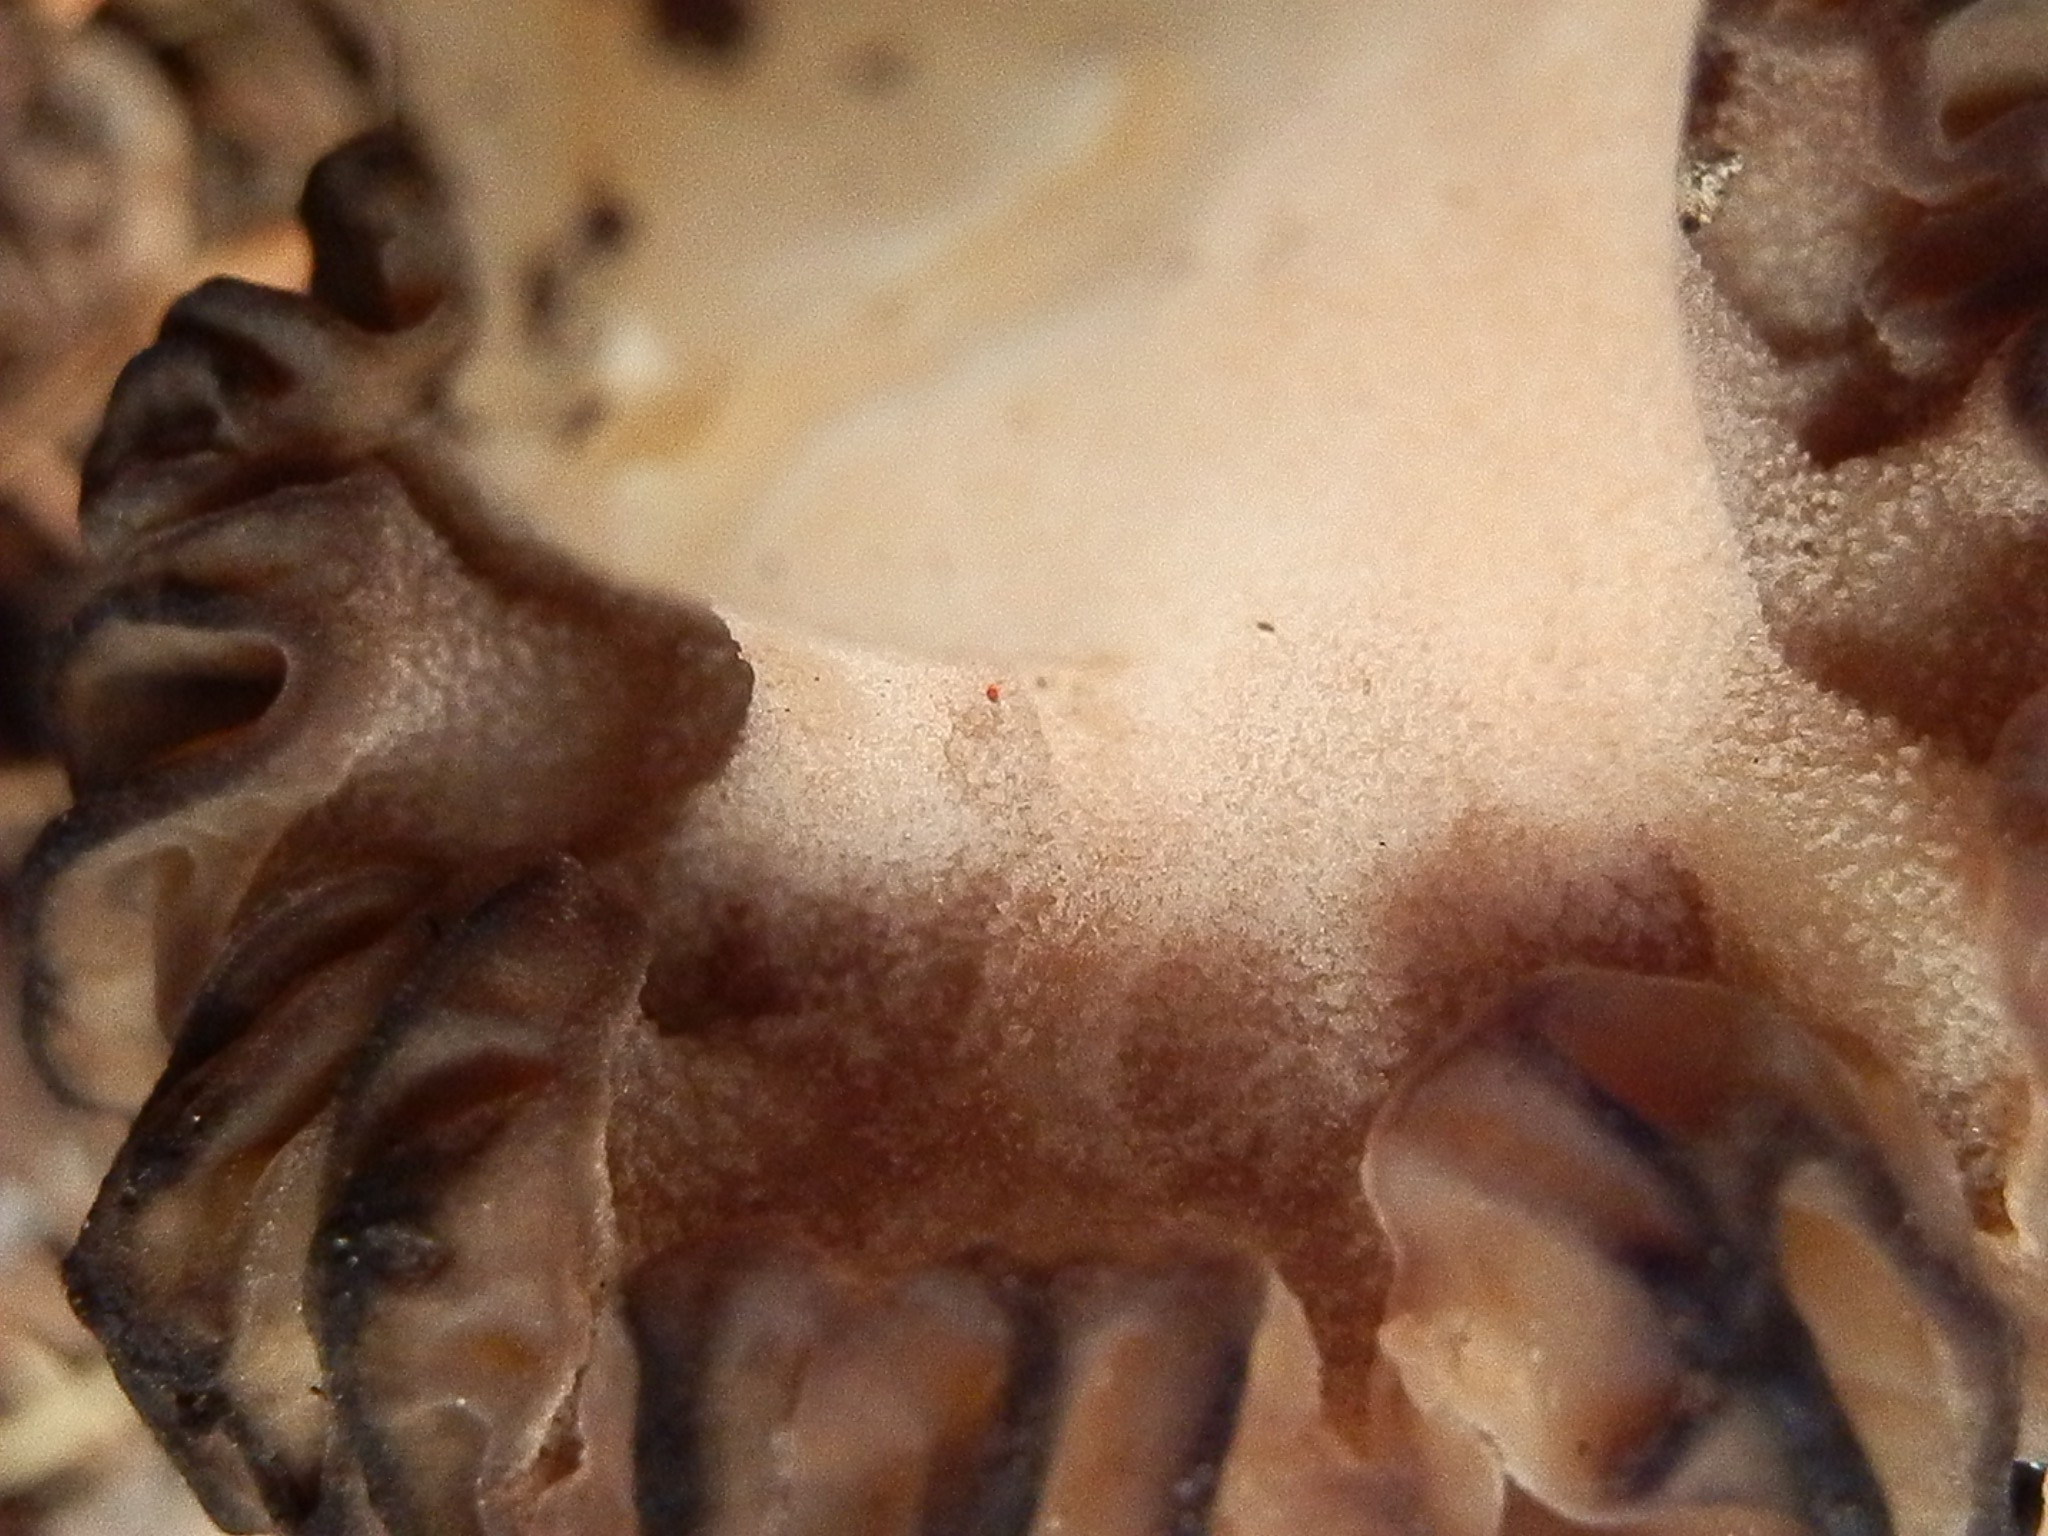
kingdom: Fungi
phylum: Ascomycota
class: Pezizomycetes
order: Pezizales
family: Morchellaceae
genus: Morchella
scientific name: Morchella kaibabensis
